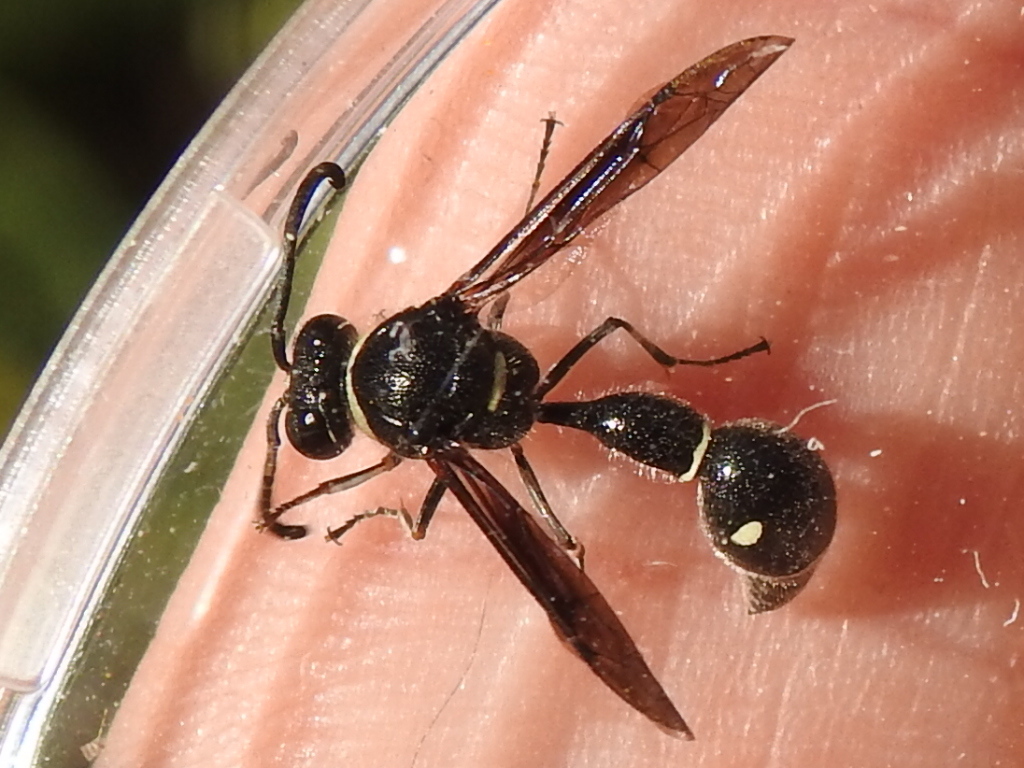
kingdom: Animalia
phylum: Arthropoda
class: Insecta
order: Hymenoptera
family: Vespidae
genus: Eumenes
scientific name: Eumenes fraternus
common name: Fraternal potter wasp
